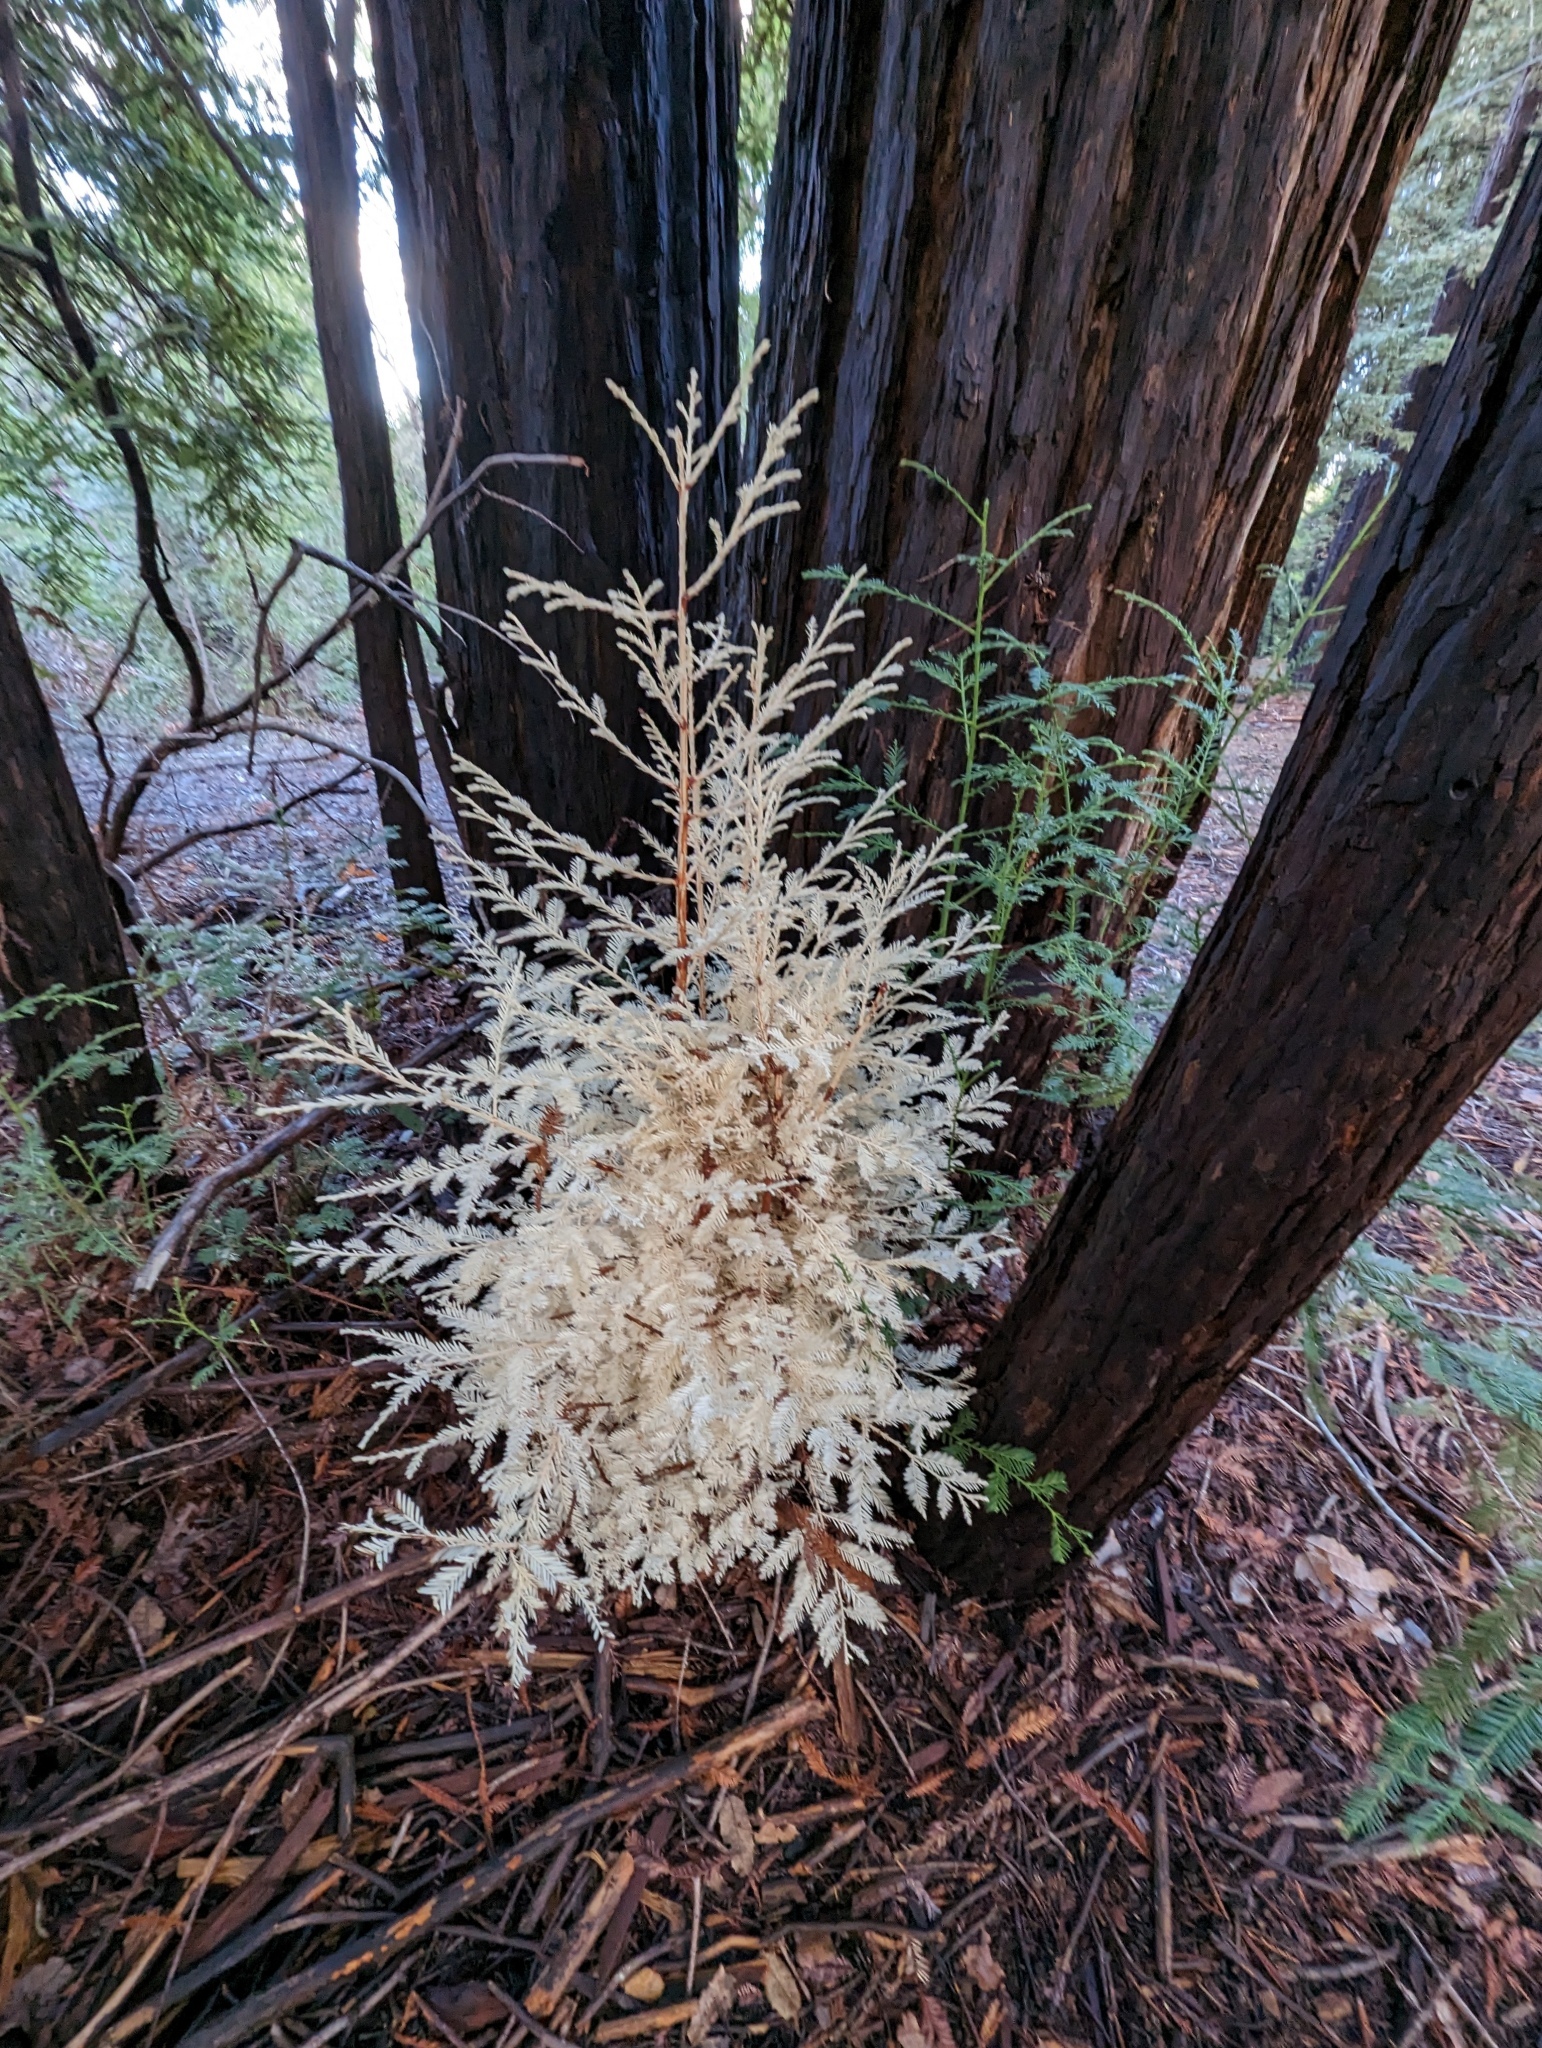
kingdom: Plantae
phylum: Tracheophyta
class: Pinopsida
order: Pinales
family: Cupressaceae
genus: Sequoia
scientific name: Sequoia sempervirens
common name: Coast redwood
